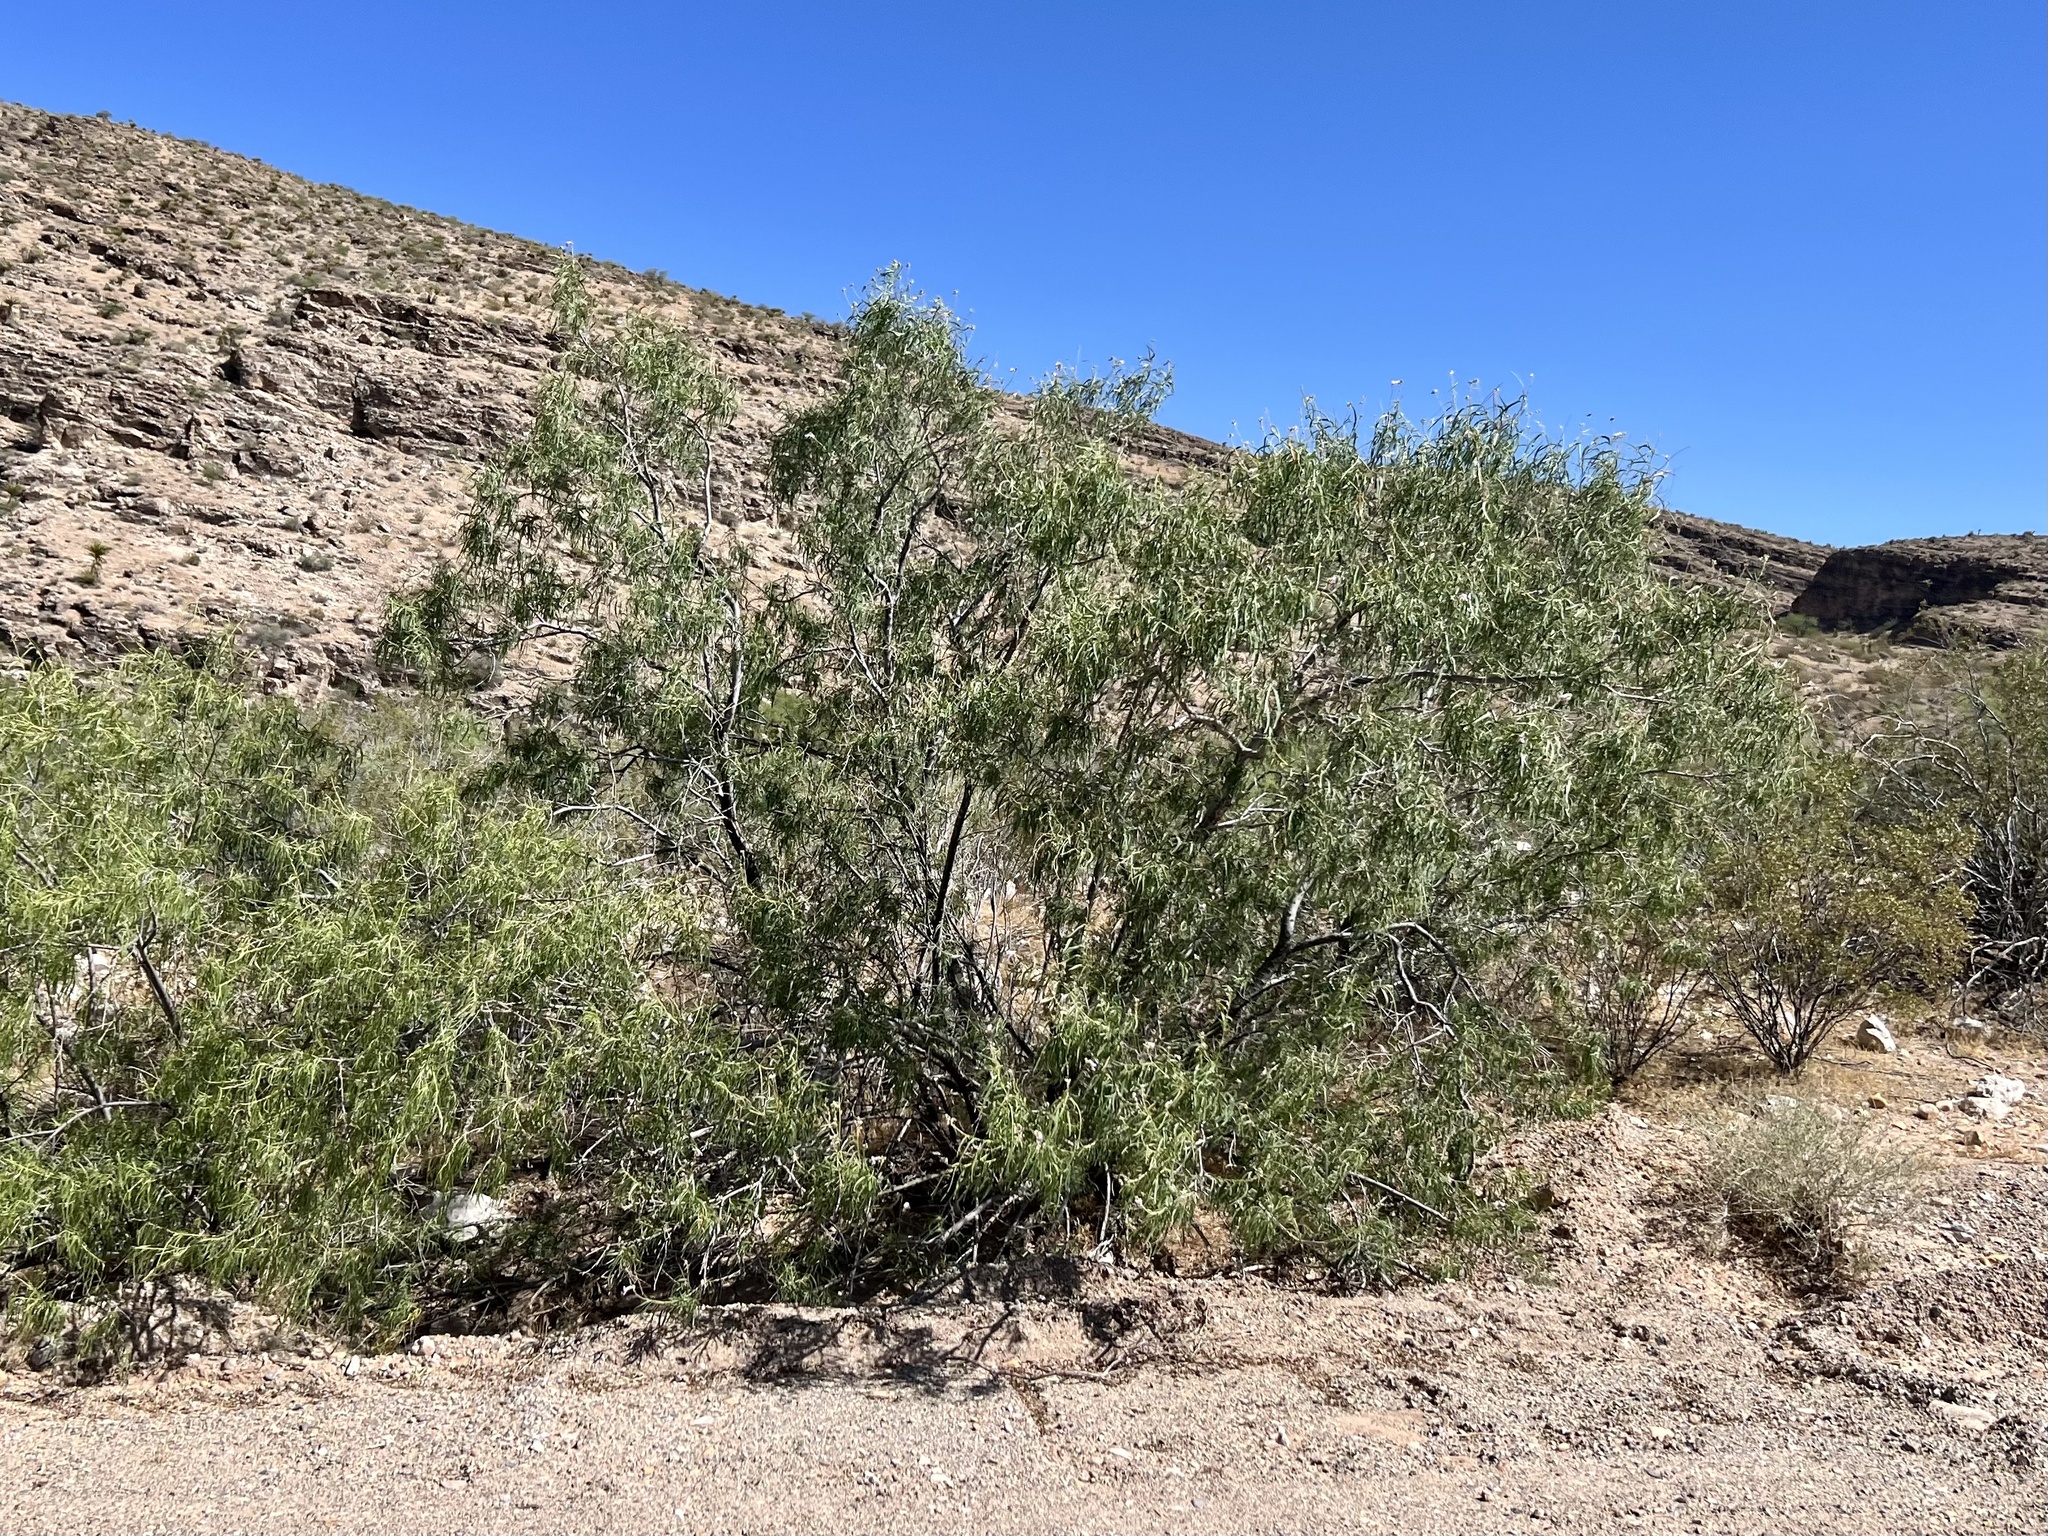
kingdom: Plantae
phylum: Tracheophyta
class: Magnoliopsida
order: Lamiales
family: Bignoniaceae
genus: Chilopsis
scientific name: Chilopsis linearis
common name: Desert-willow
